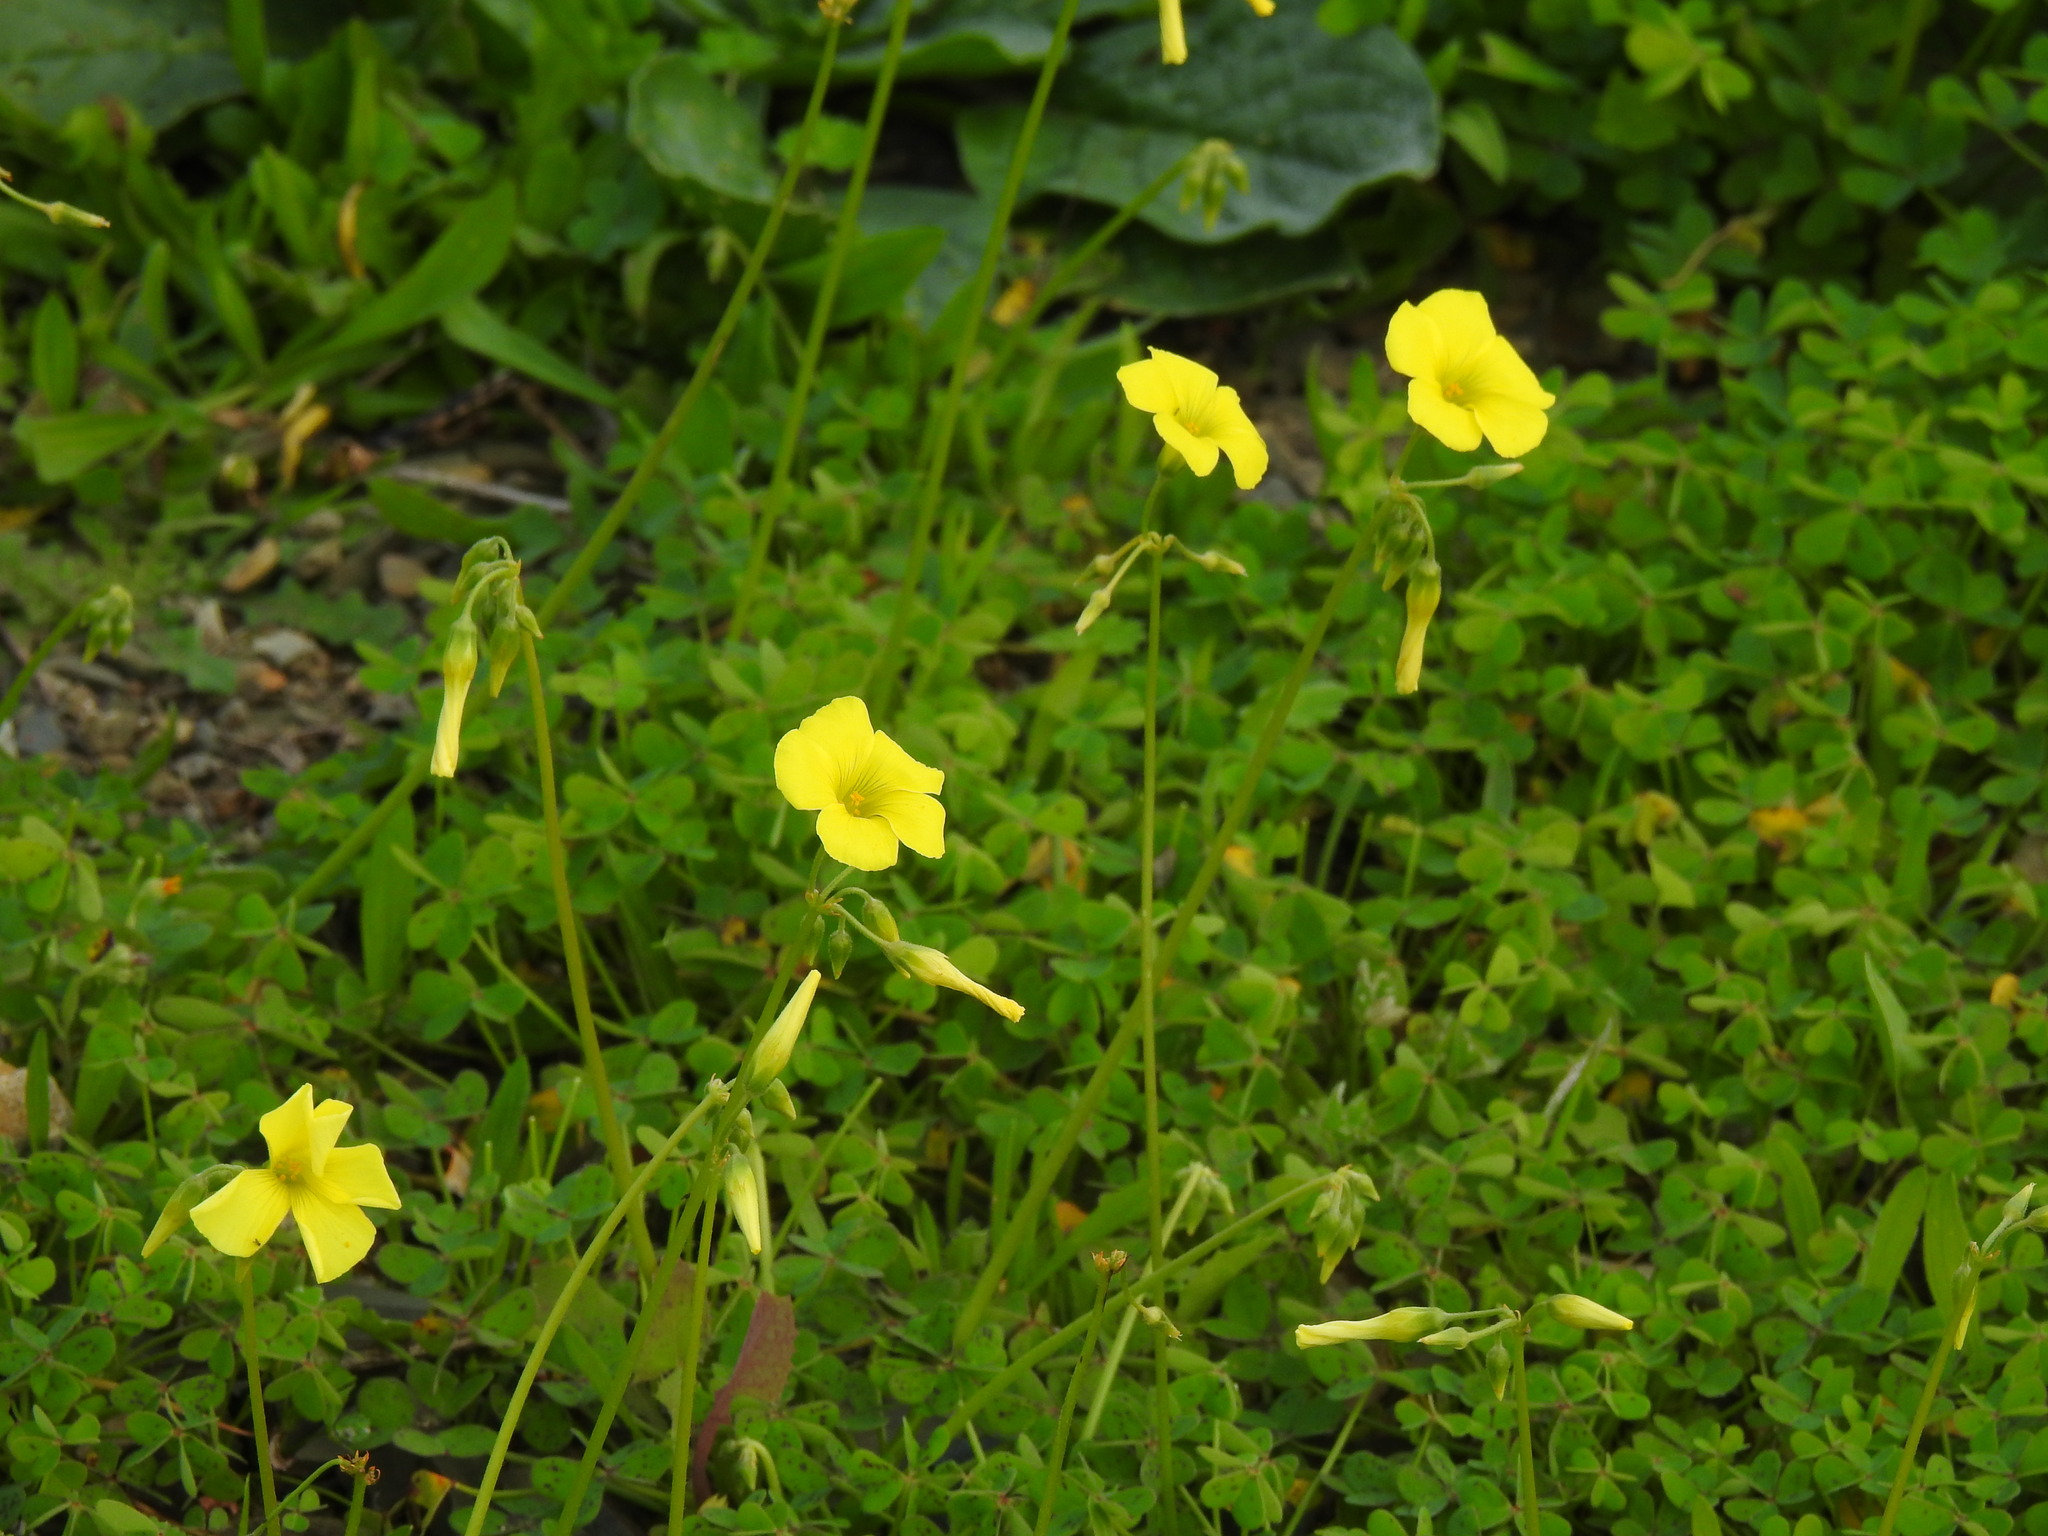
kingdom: Plantae
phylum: Tracheophyta
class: Magnoliopsida
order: Oxalidales
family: Oxalidaceae
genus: Oxalis
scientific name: Oxalis pes-caprae
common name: Bermuda-buttercup
